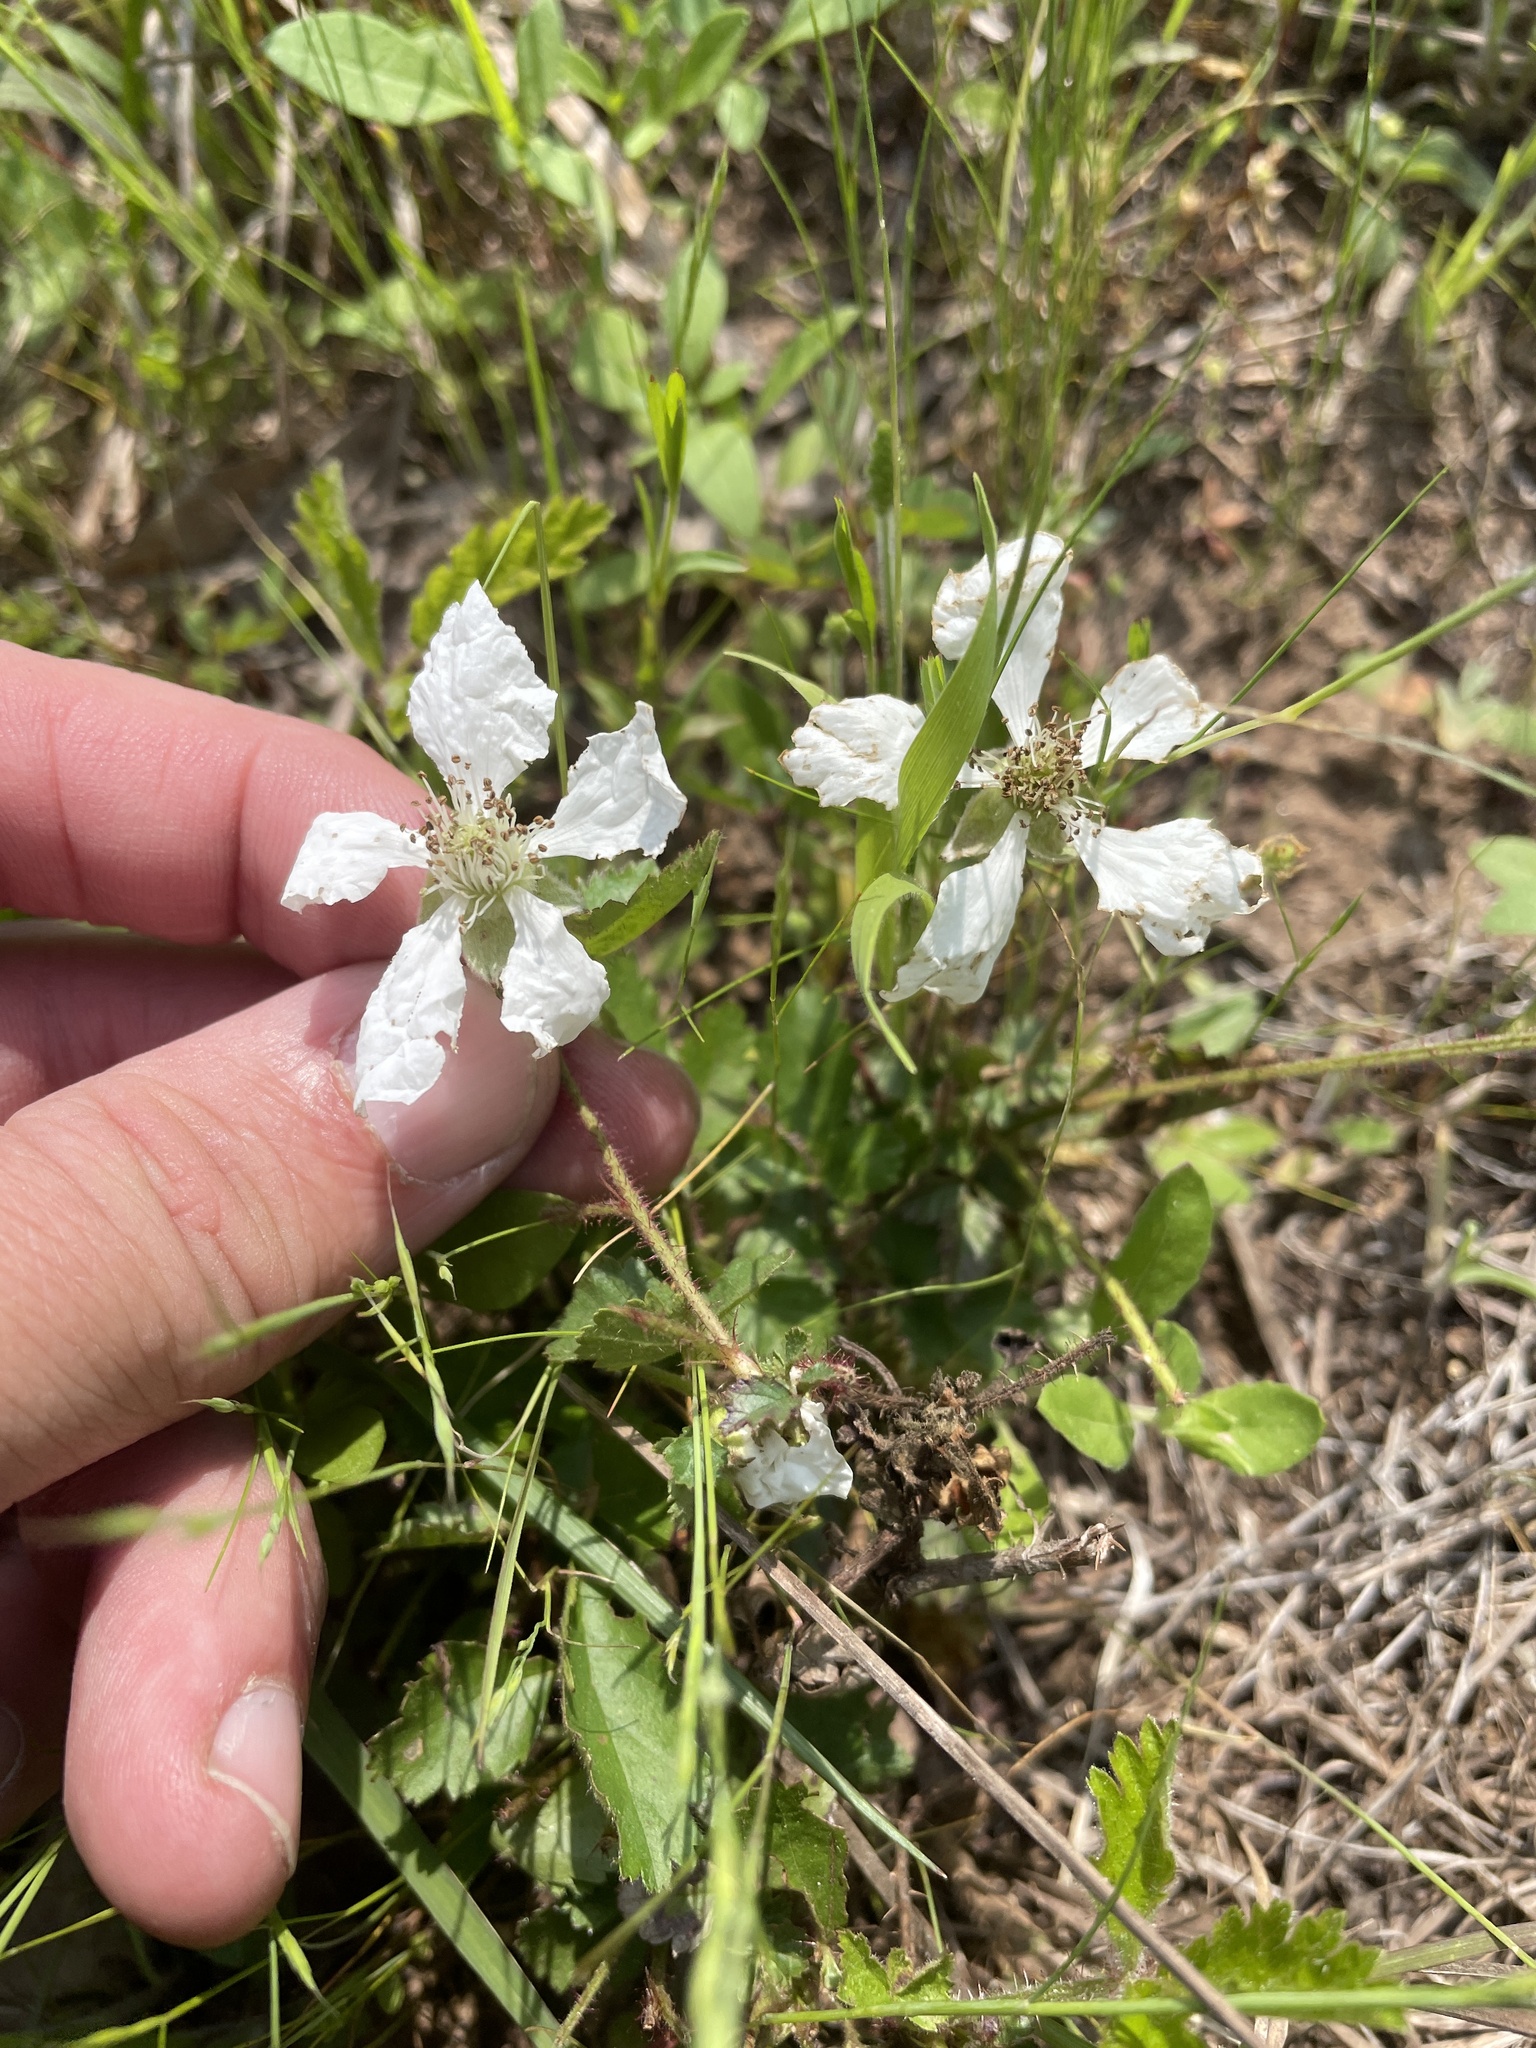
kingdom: Plantae
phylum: Tracheophyta
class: Magnoliopsida
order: Rosales
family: Rosaceae
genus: Rubus
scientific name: Rubus trivialis
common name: Southern dewberry
